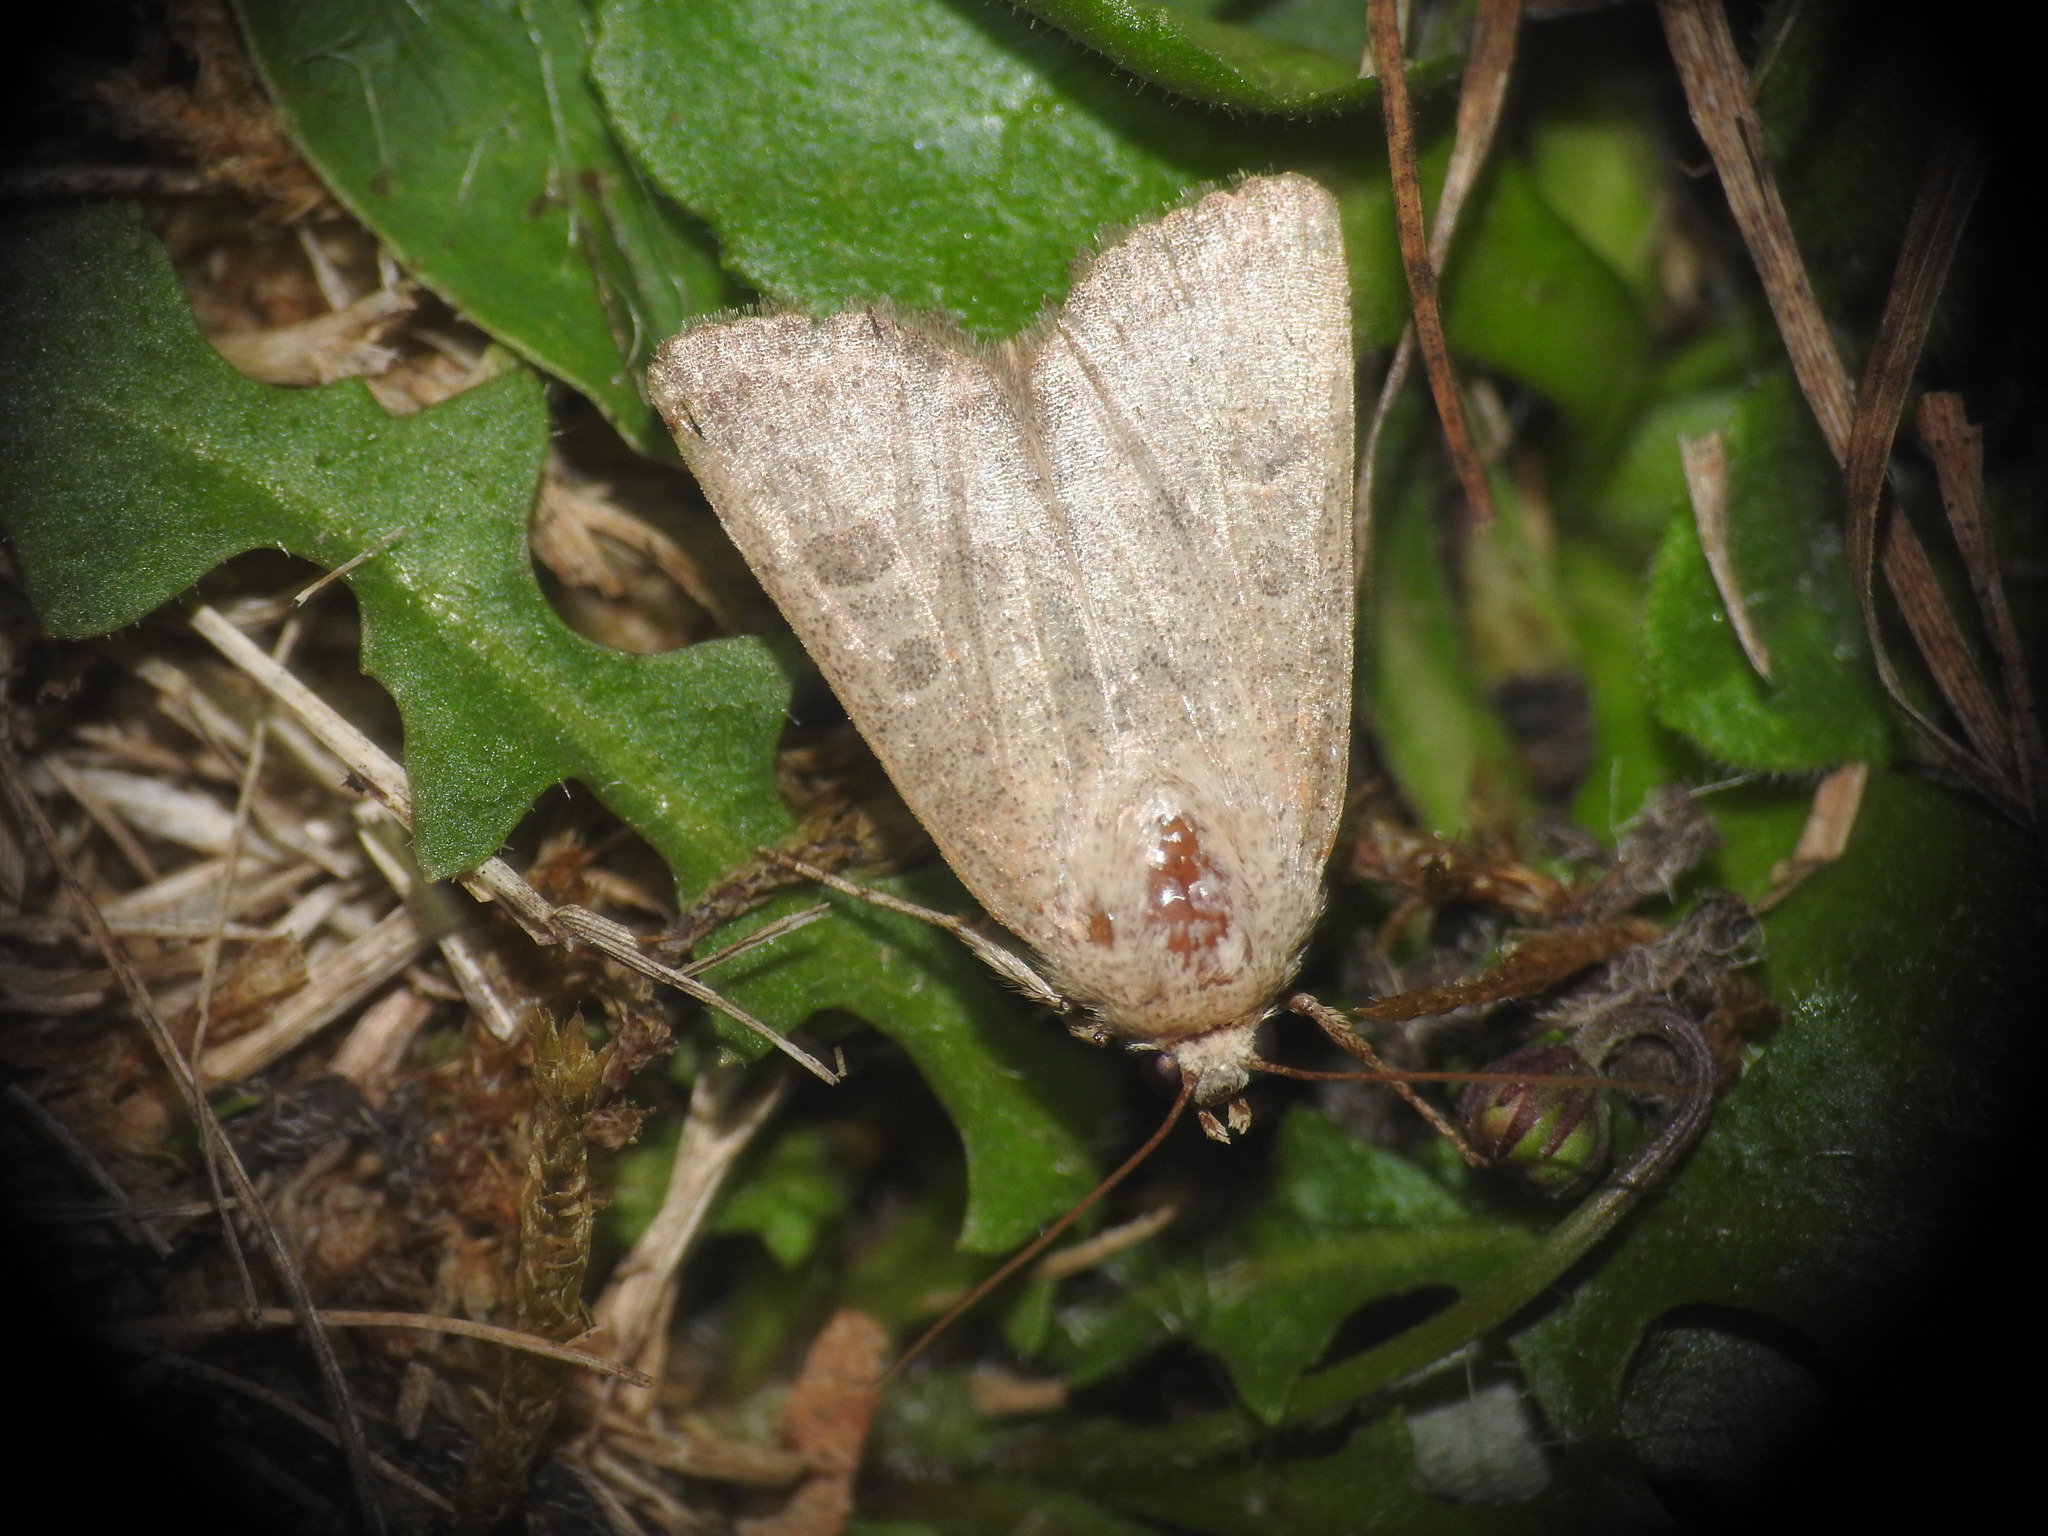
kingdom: Animalia
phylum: Arthropoda
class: Insecta
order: Lepidoptera
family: Noctuidae
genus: Hoplodrina
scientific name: Hoplodrina ambigua
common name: Vine's rustic
